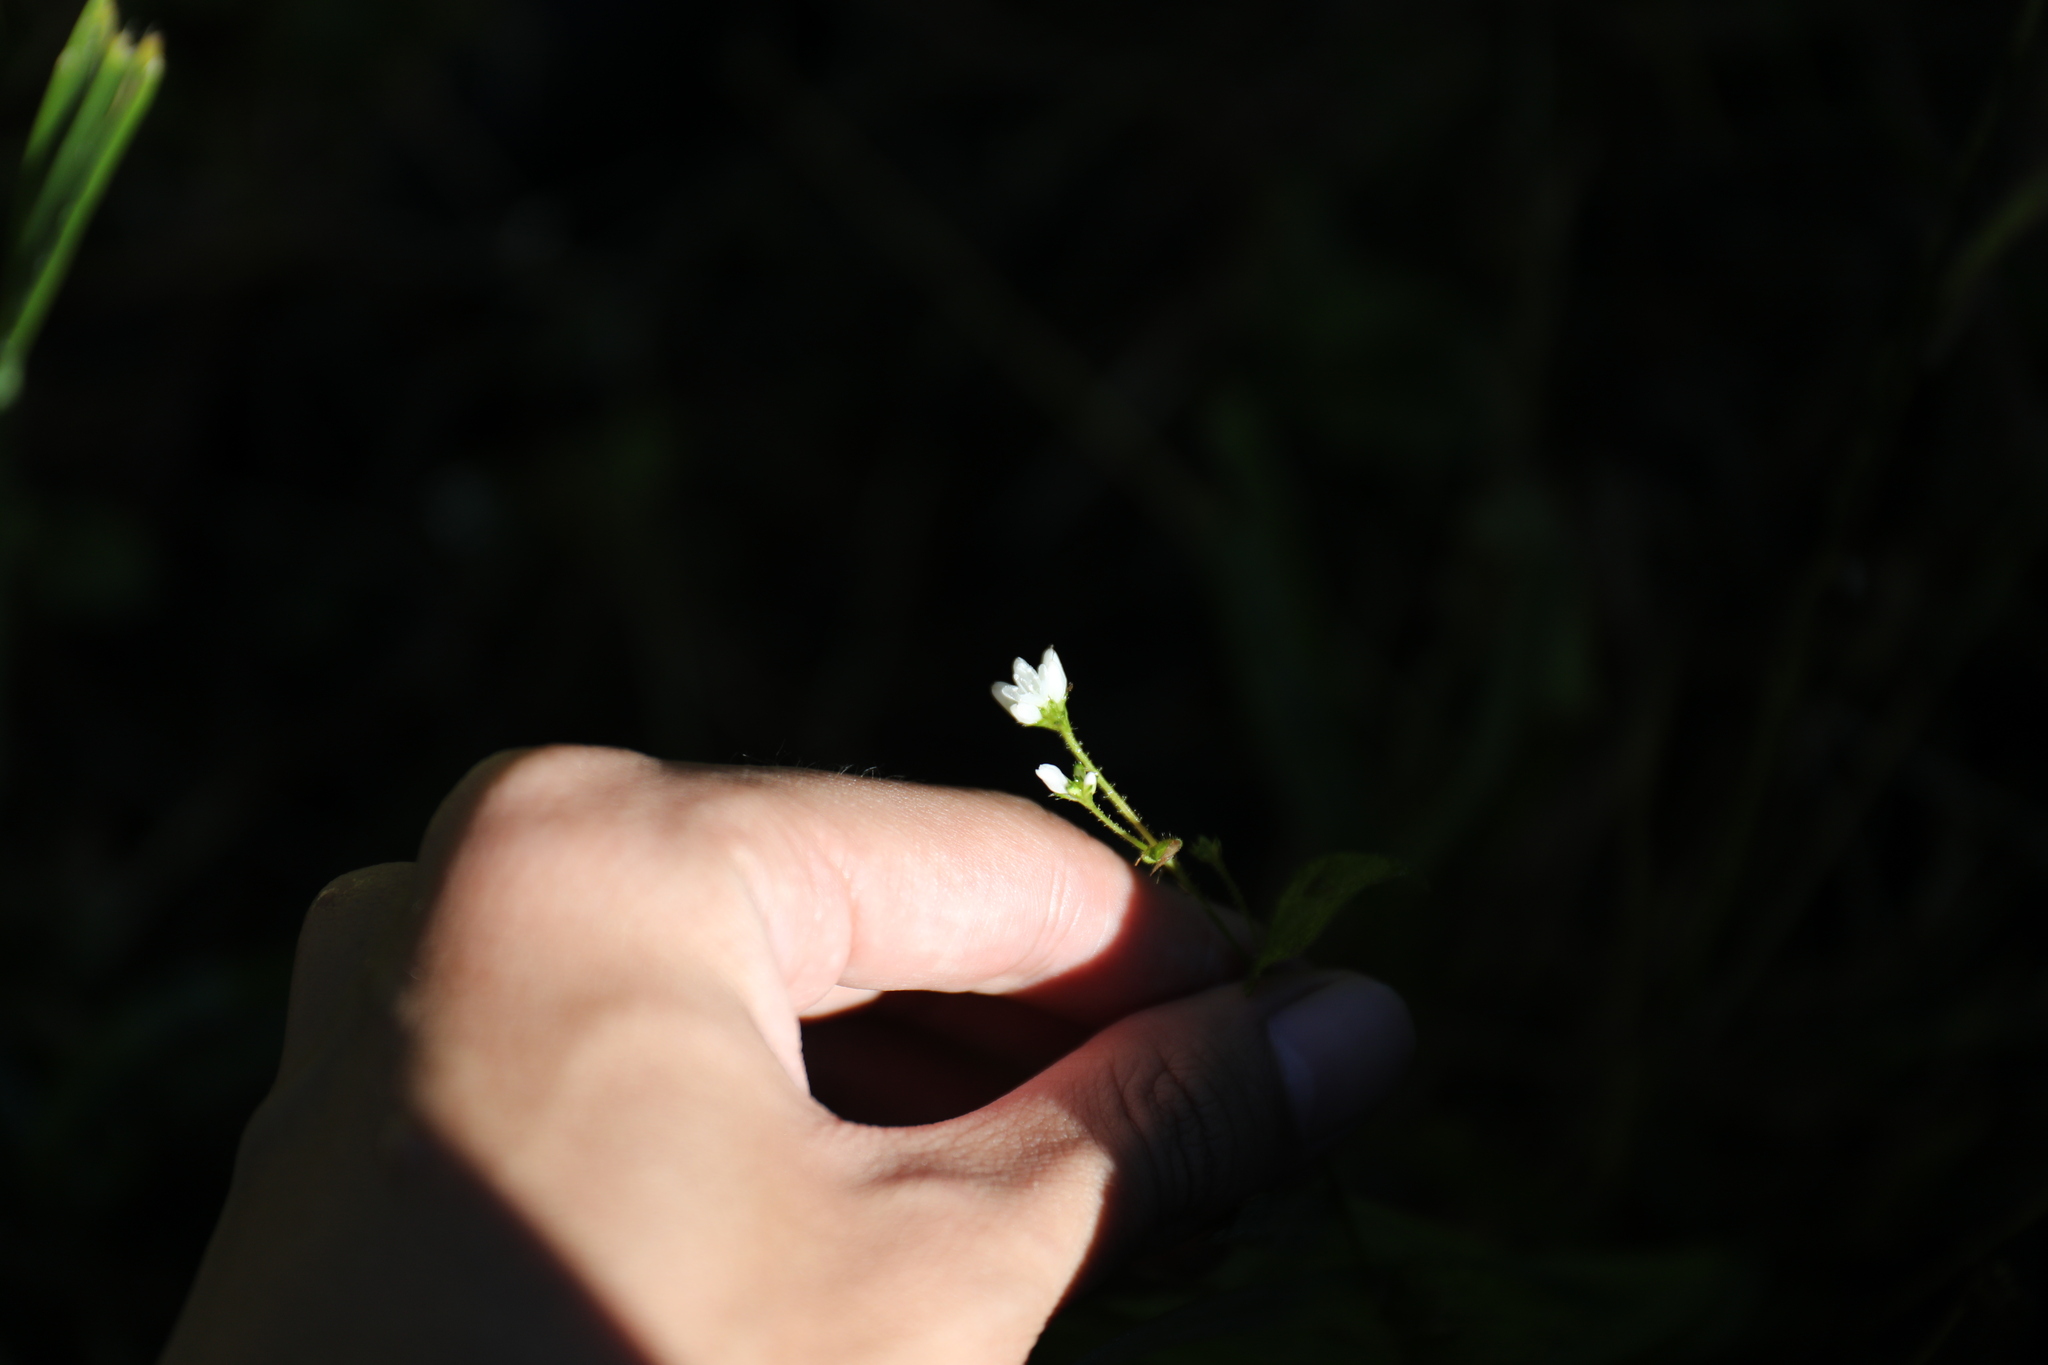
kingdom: Plantae
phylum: Tracheophyta
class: Magnoliopsida
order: Caryophyllales
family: Polygonaceae
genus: Persicaria
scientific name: Persicaria biconvexa
